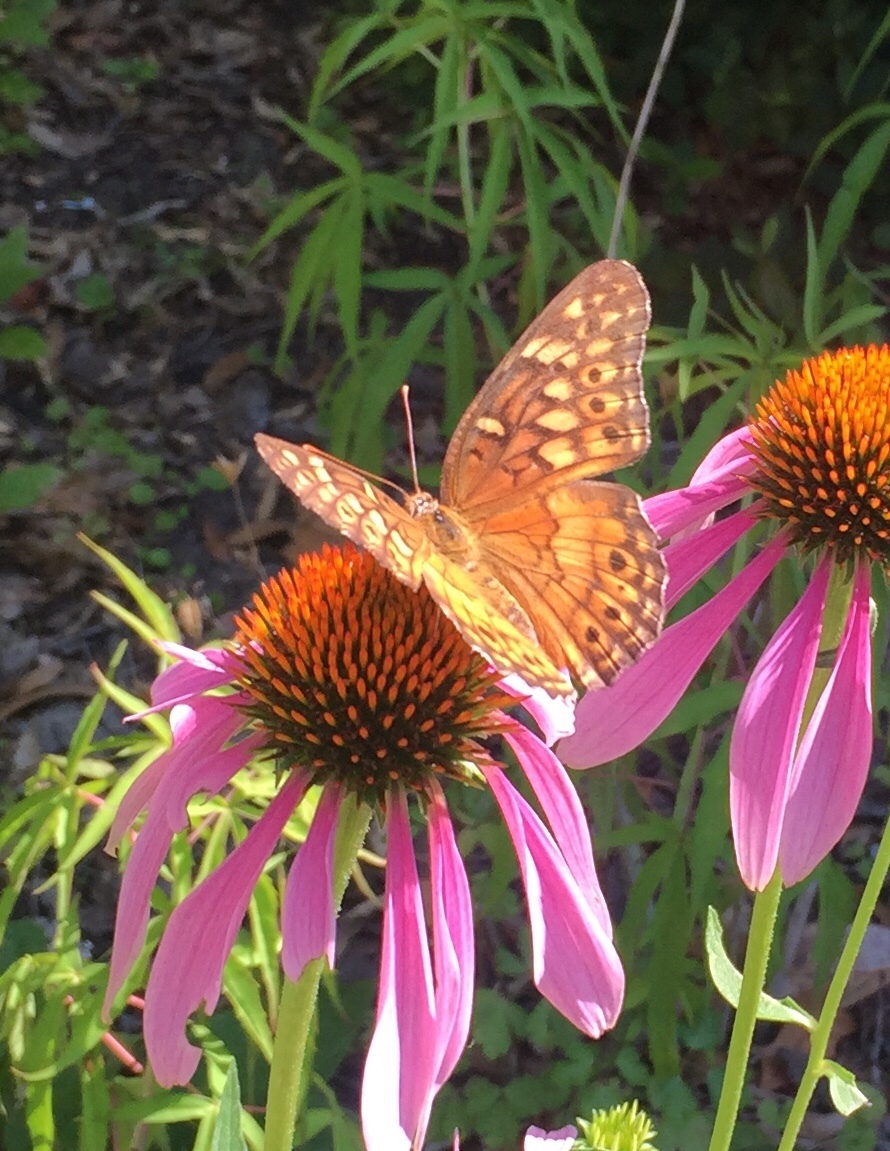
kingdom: Animalia
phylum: Arthropoda
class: Insecta
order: Lepidoptera
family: Nymphalidae
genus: Euptoieta
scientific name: Euptoieta claudia
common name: Variegated fritillary
